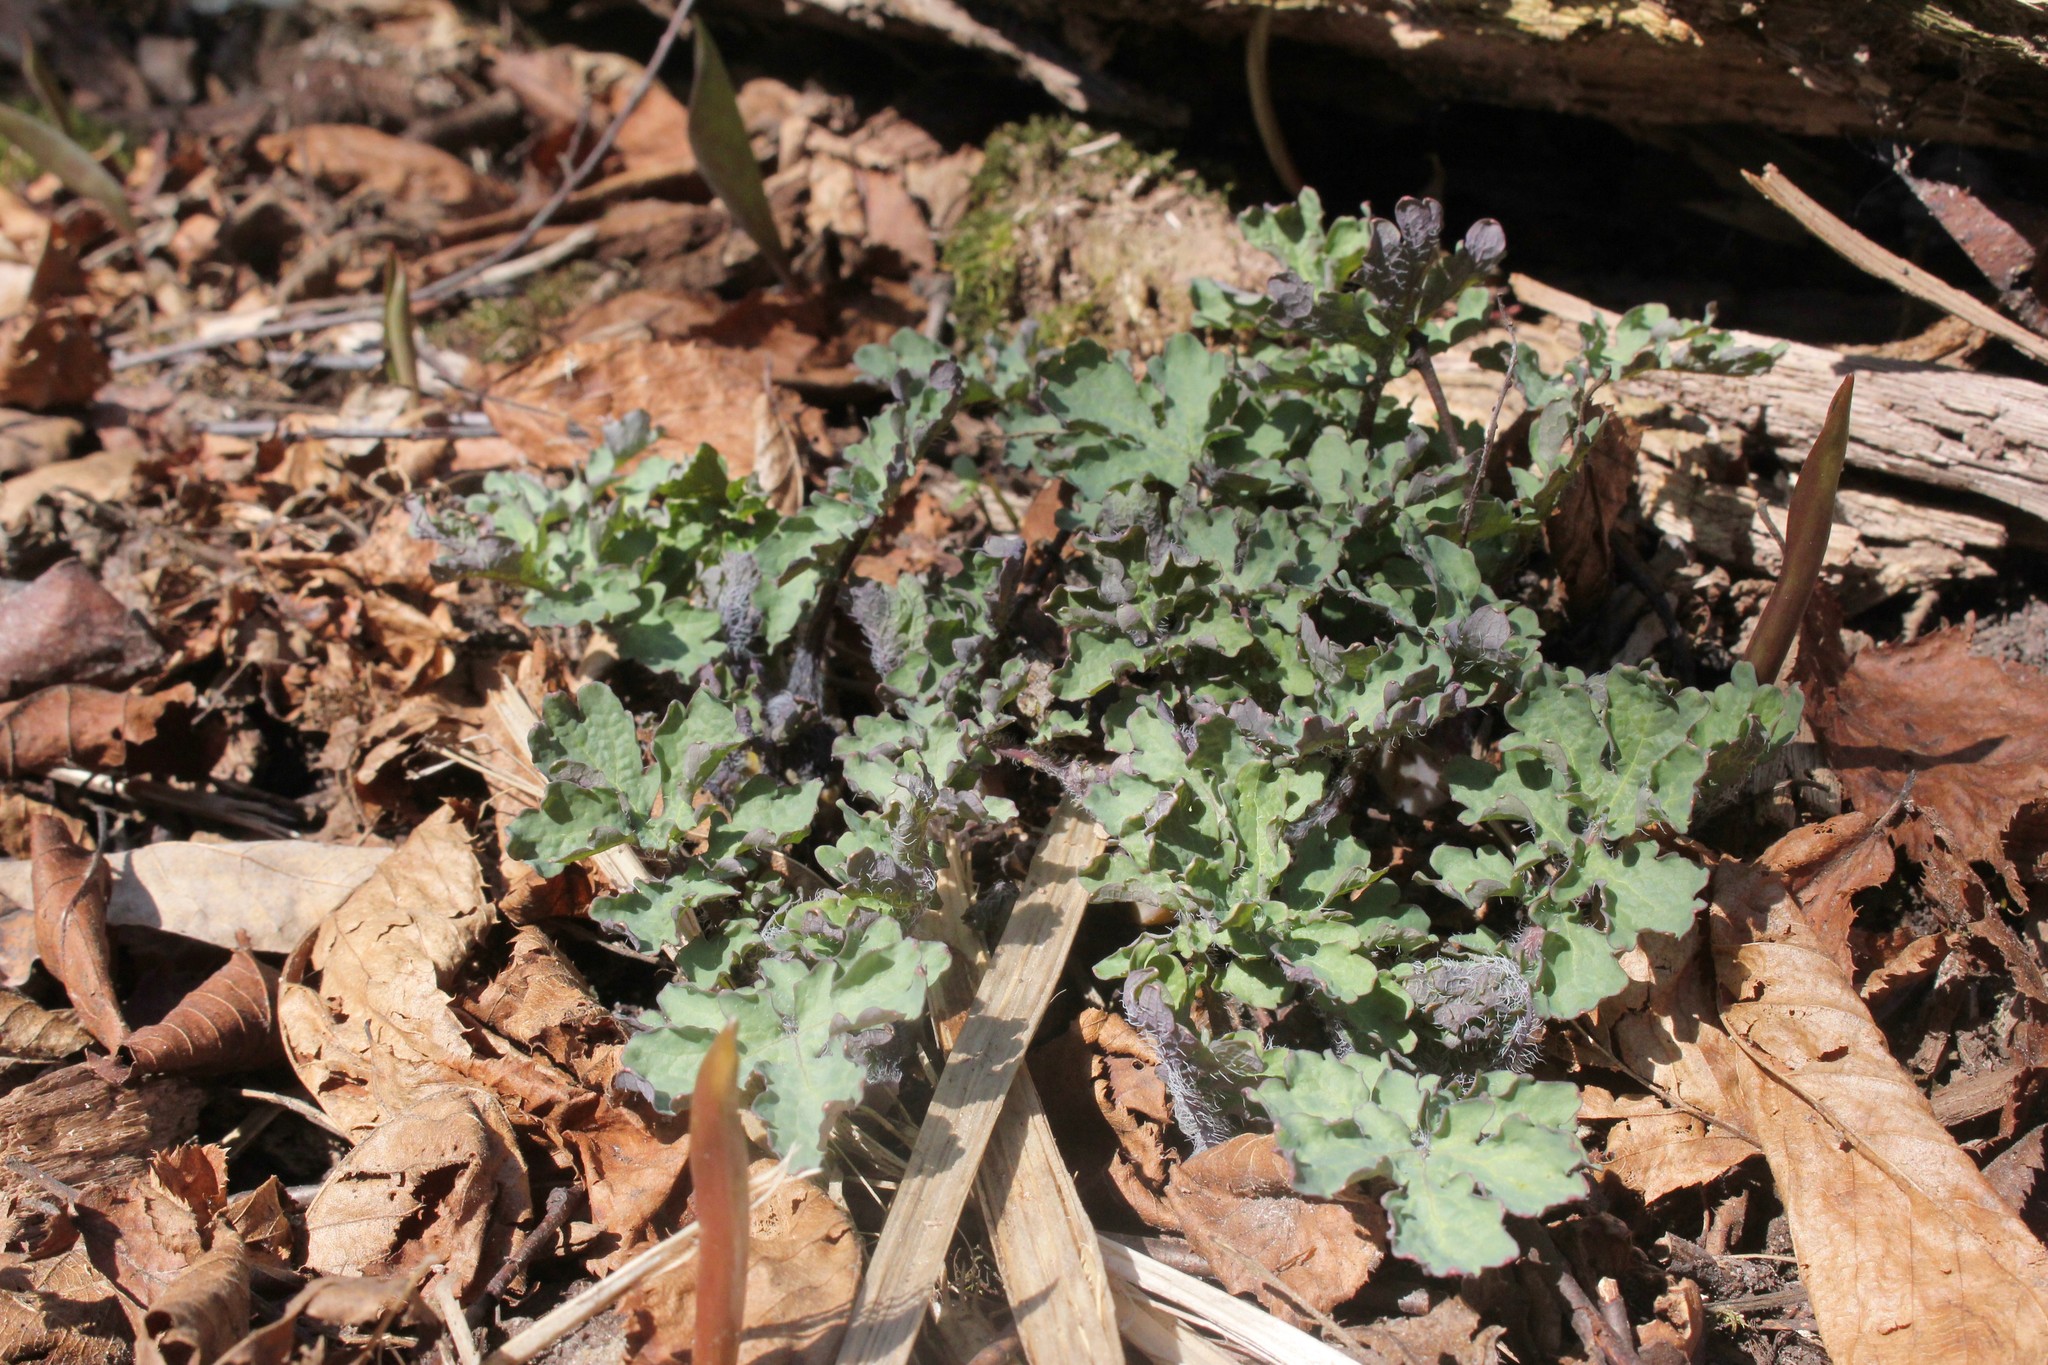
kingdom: Plantae
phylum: Tracheophyta
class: Magnoliopsida
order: Ranunculales
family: Papaveraceae
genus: Stylophorum
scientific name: Stylophorum diphyllum
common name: Celandine poppy
